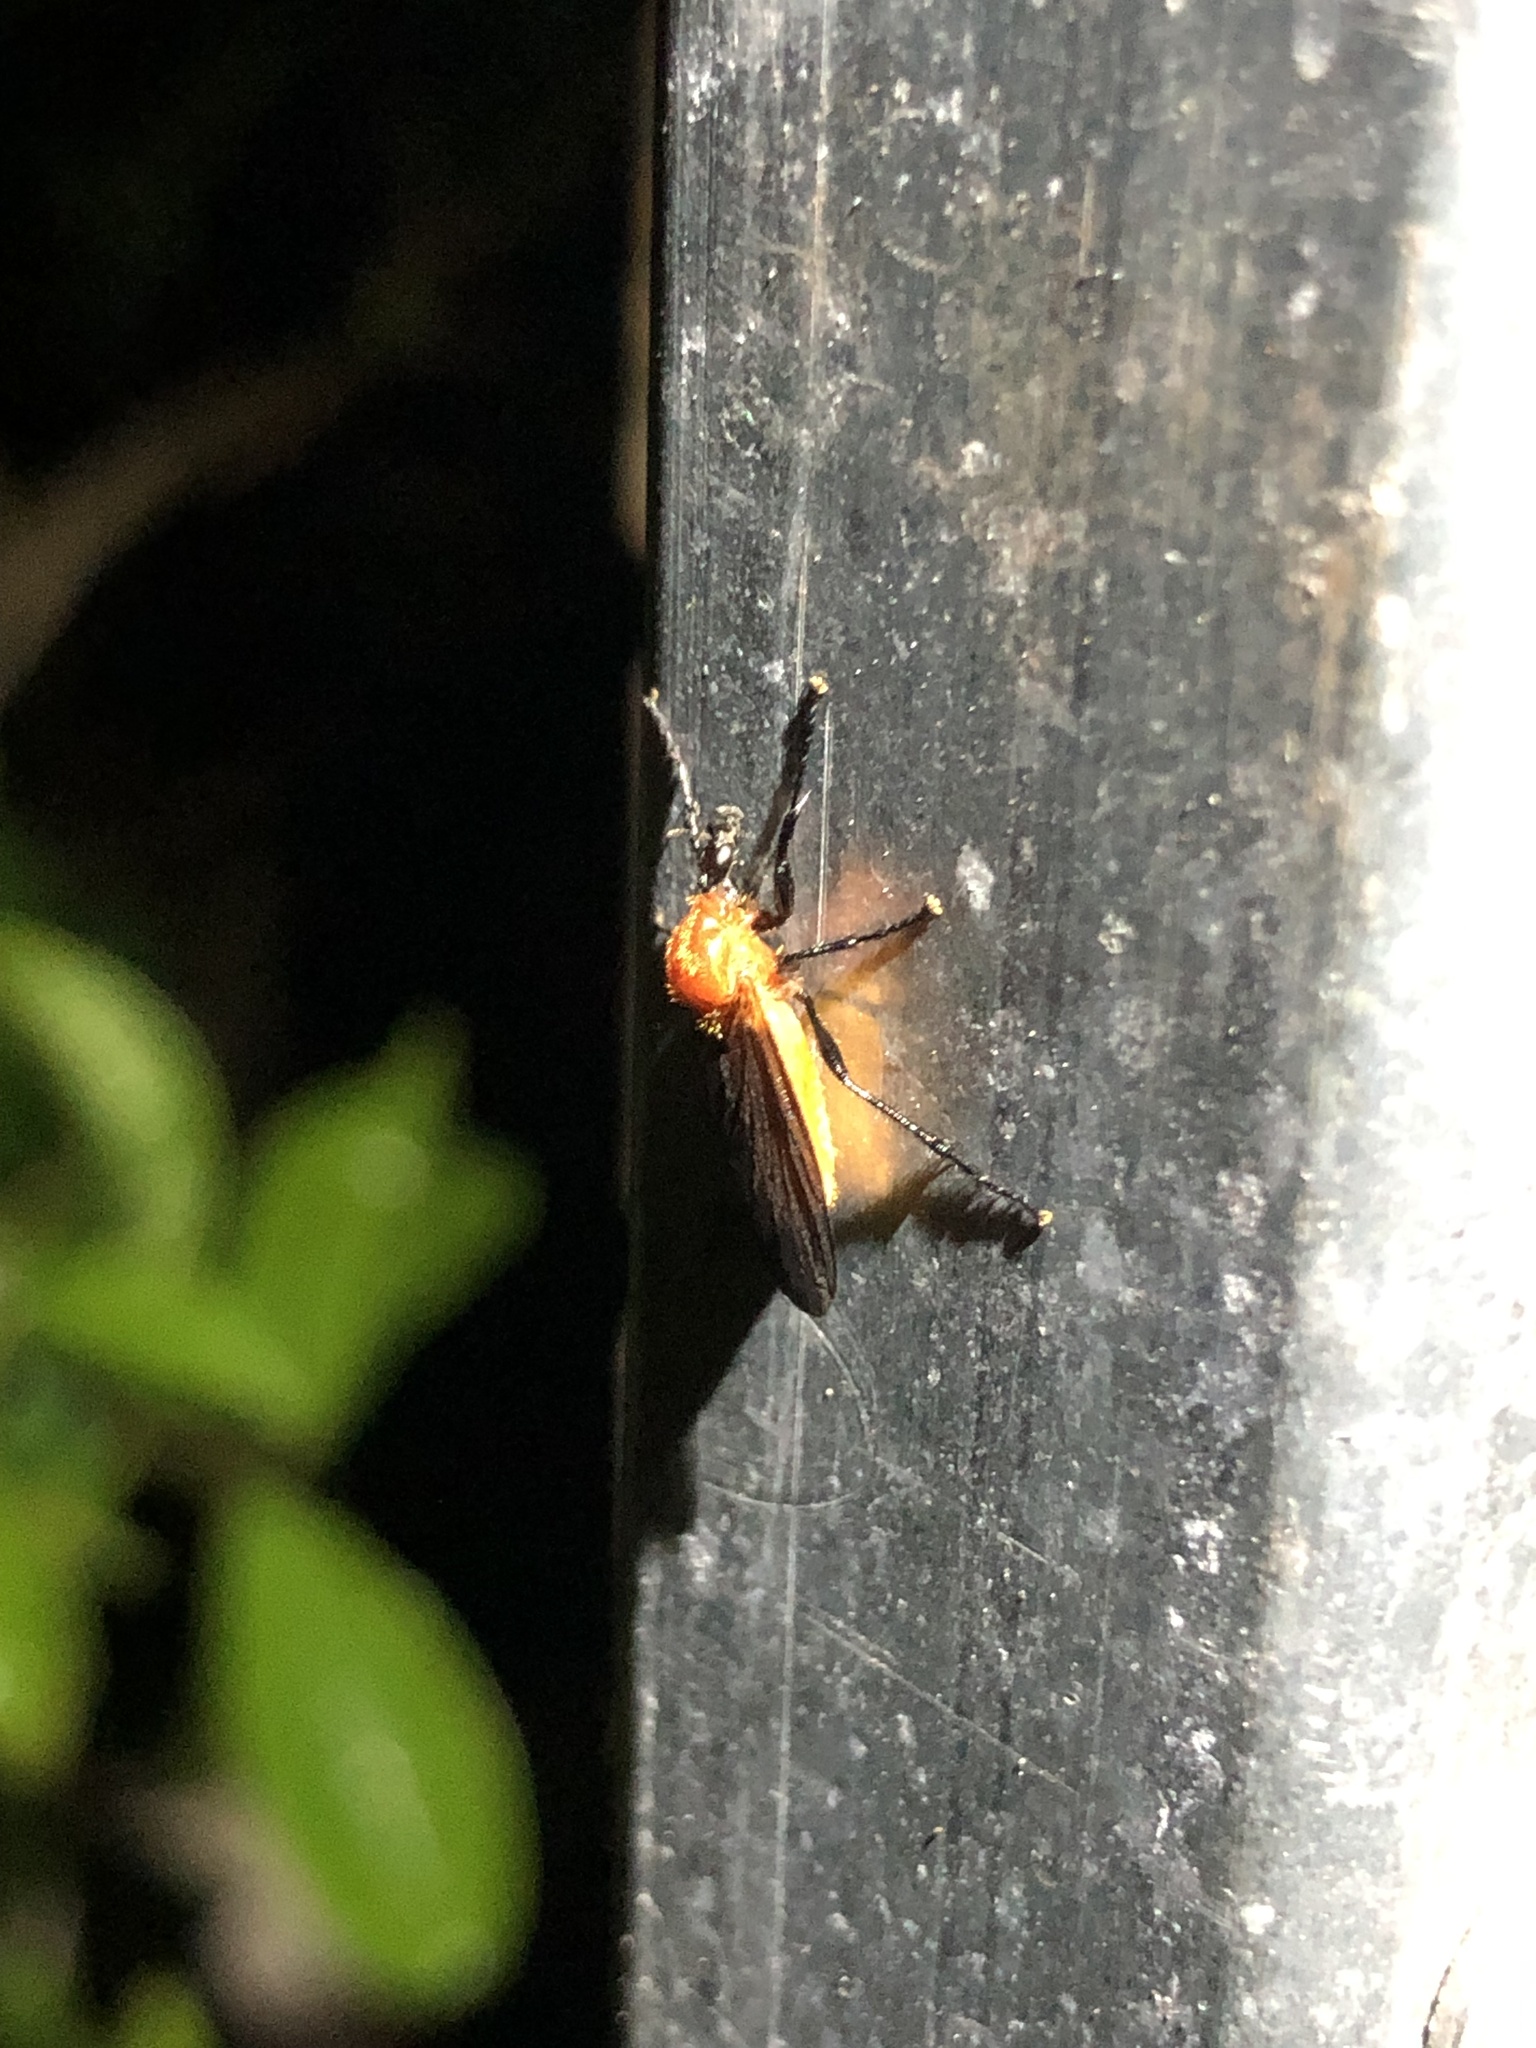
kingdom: Animalia
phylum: Arthropoda
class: Insecta
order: Diptera
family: Bibionidae
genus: Bibio
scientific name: Bibio imitator
